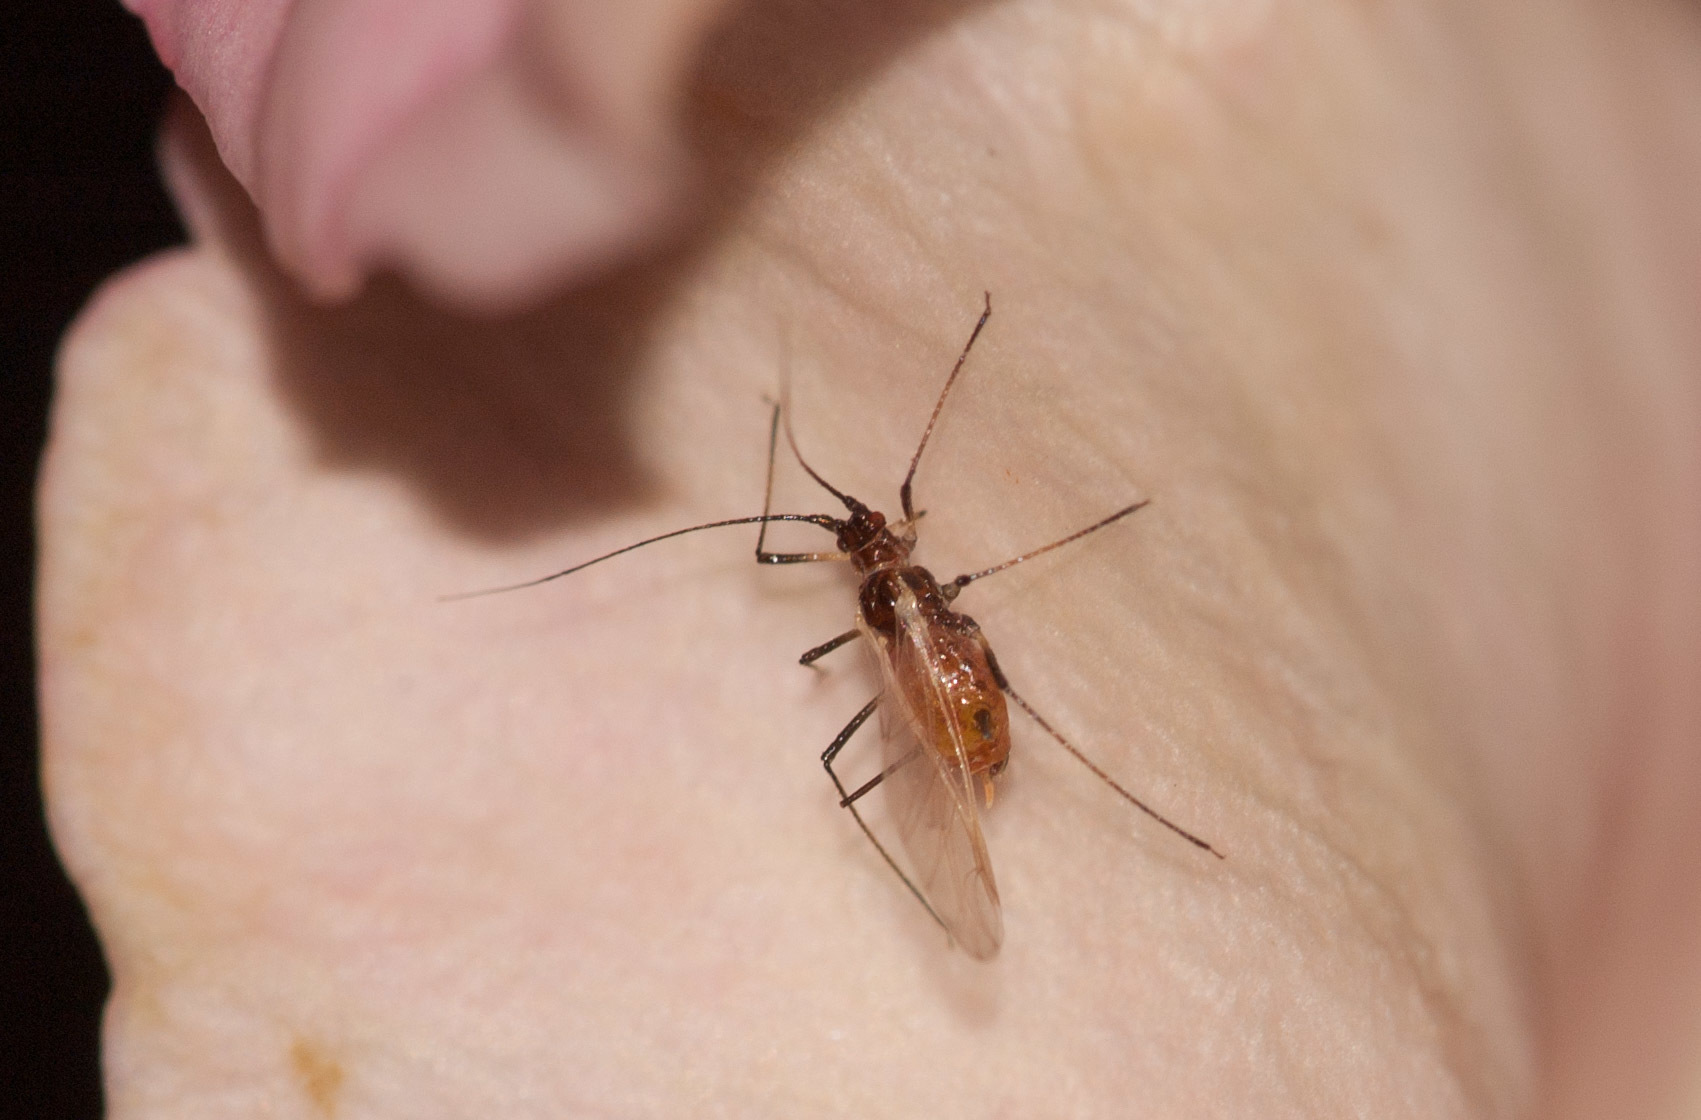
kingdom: Animalia
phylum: Arthropoda
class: Insecta
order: Hemiptera
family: Aphididae
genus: Macrosiphum
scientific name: Macrosiphum rosae
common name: Rose aphid
